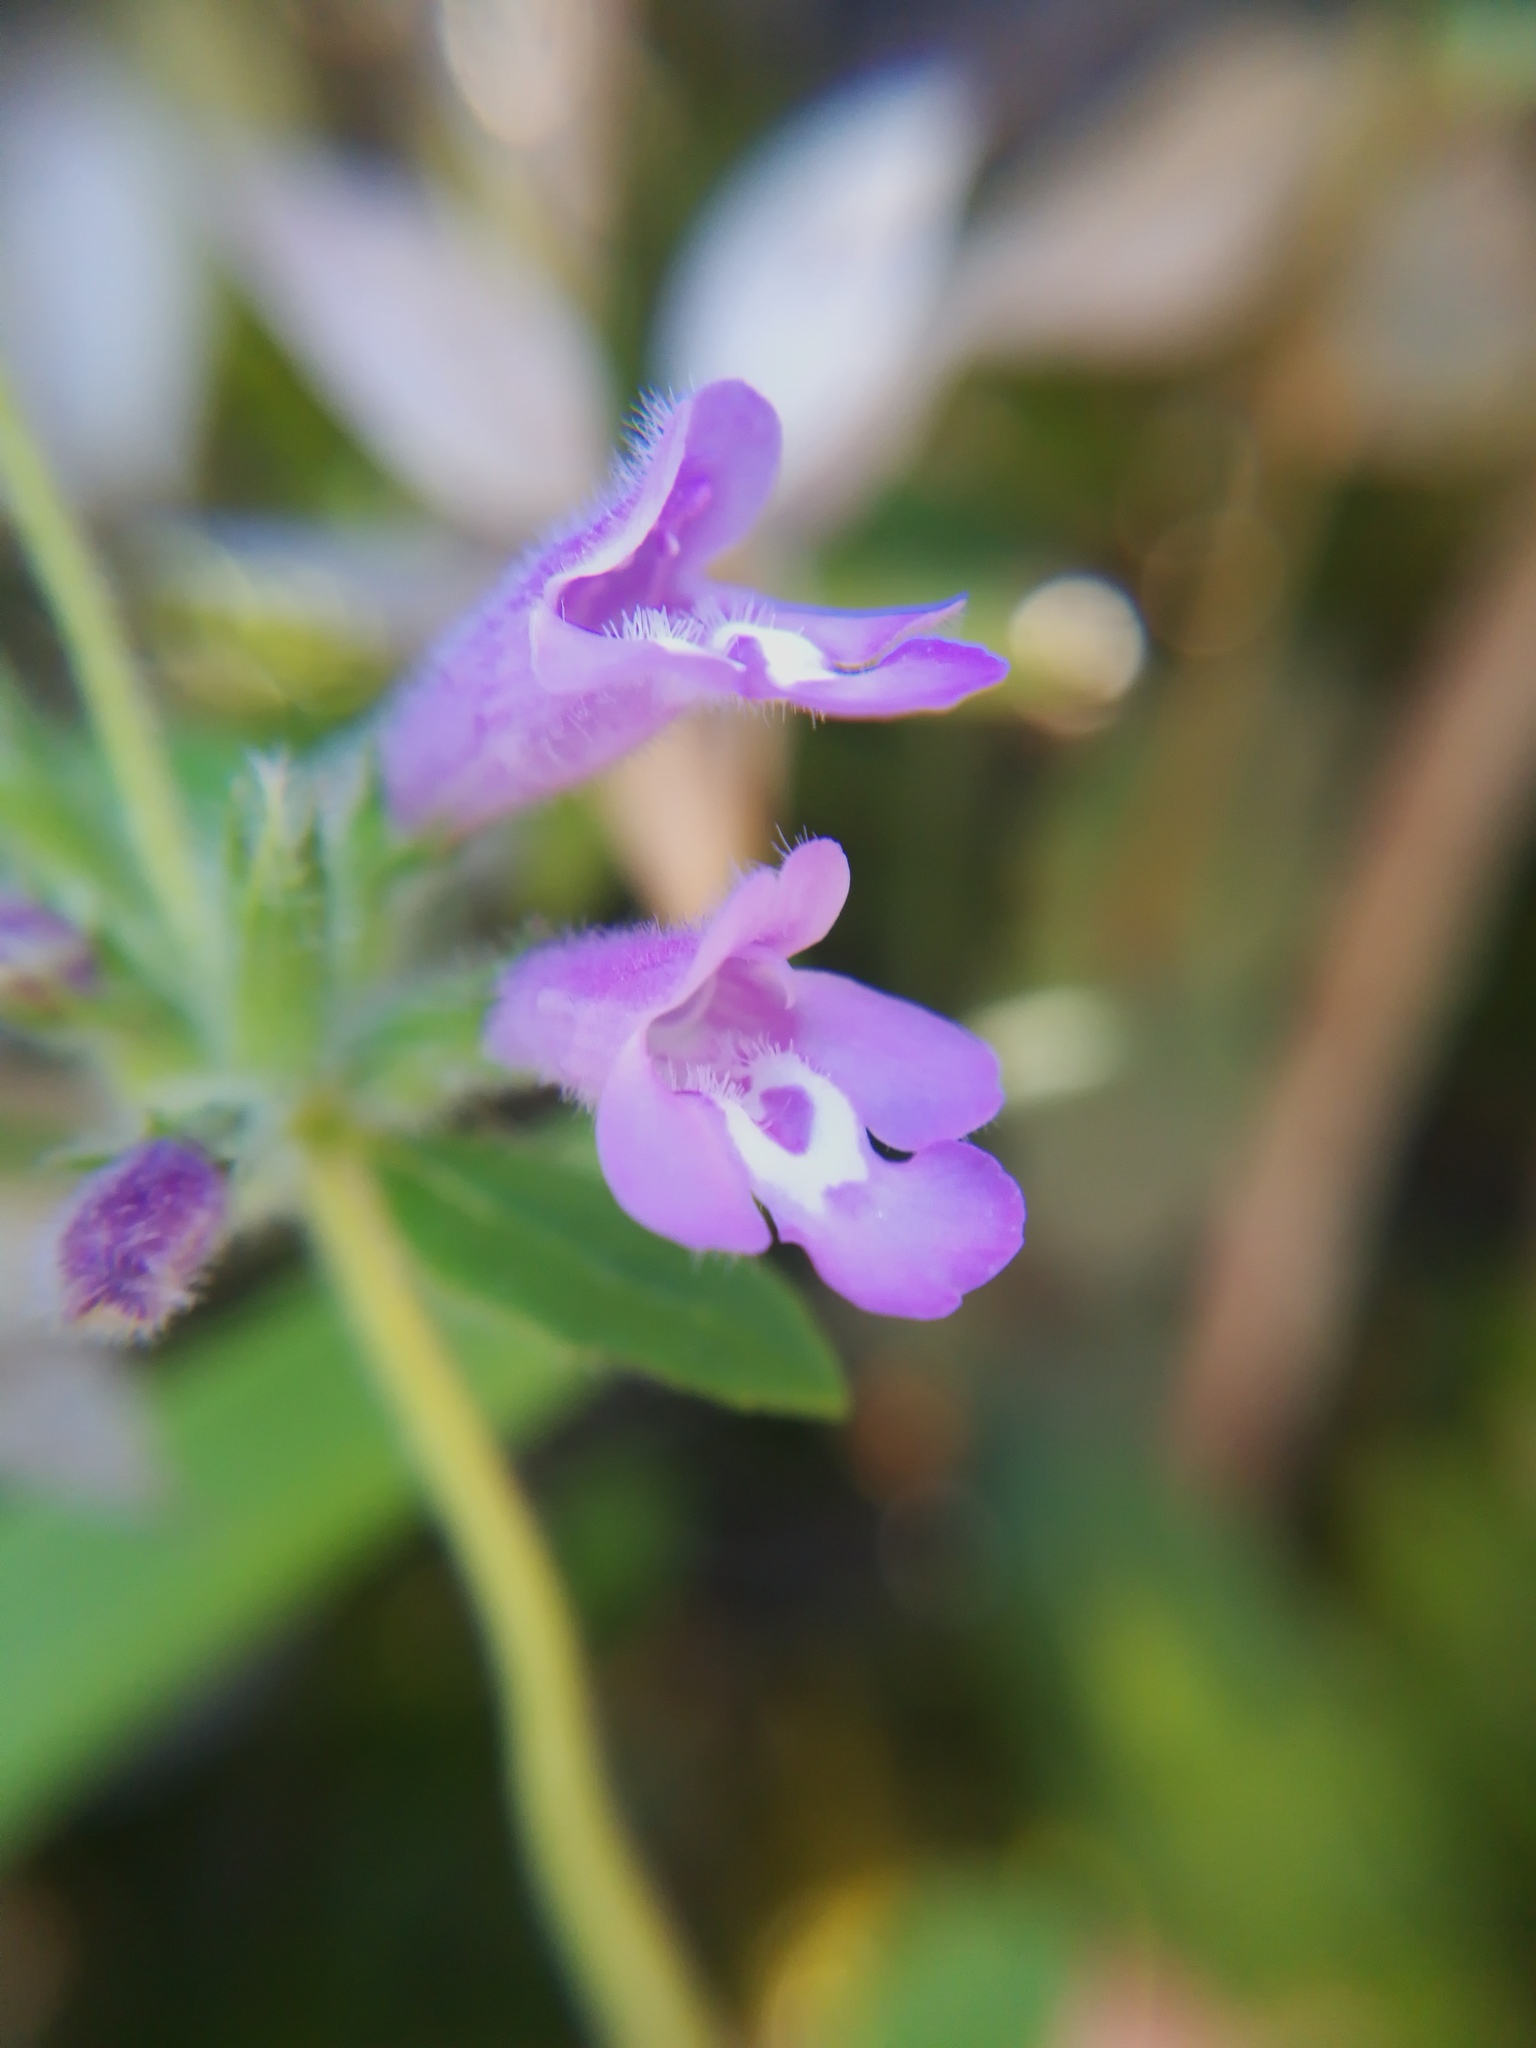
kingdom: Plantae
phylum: Tracheophyta
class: Magnoliopsida
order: Lamiales
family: Lamiaceae
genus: Clinopodium
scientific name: Clinopodium acinos
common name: Basil thyme
